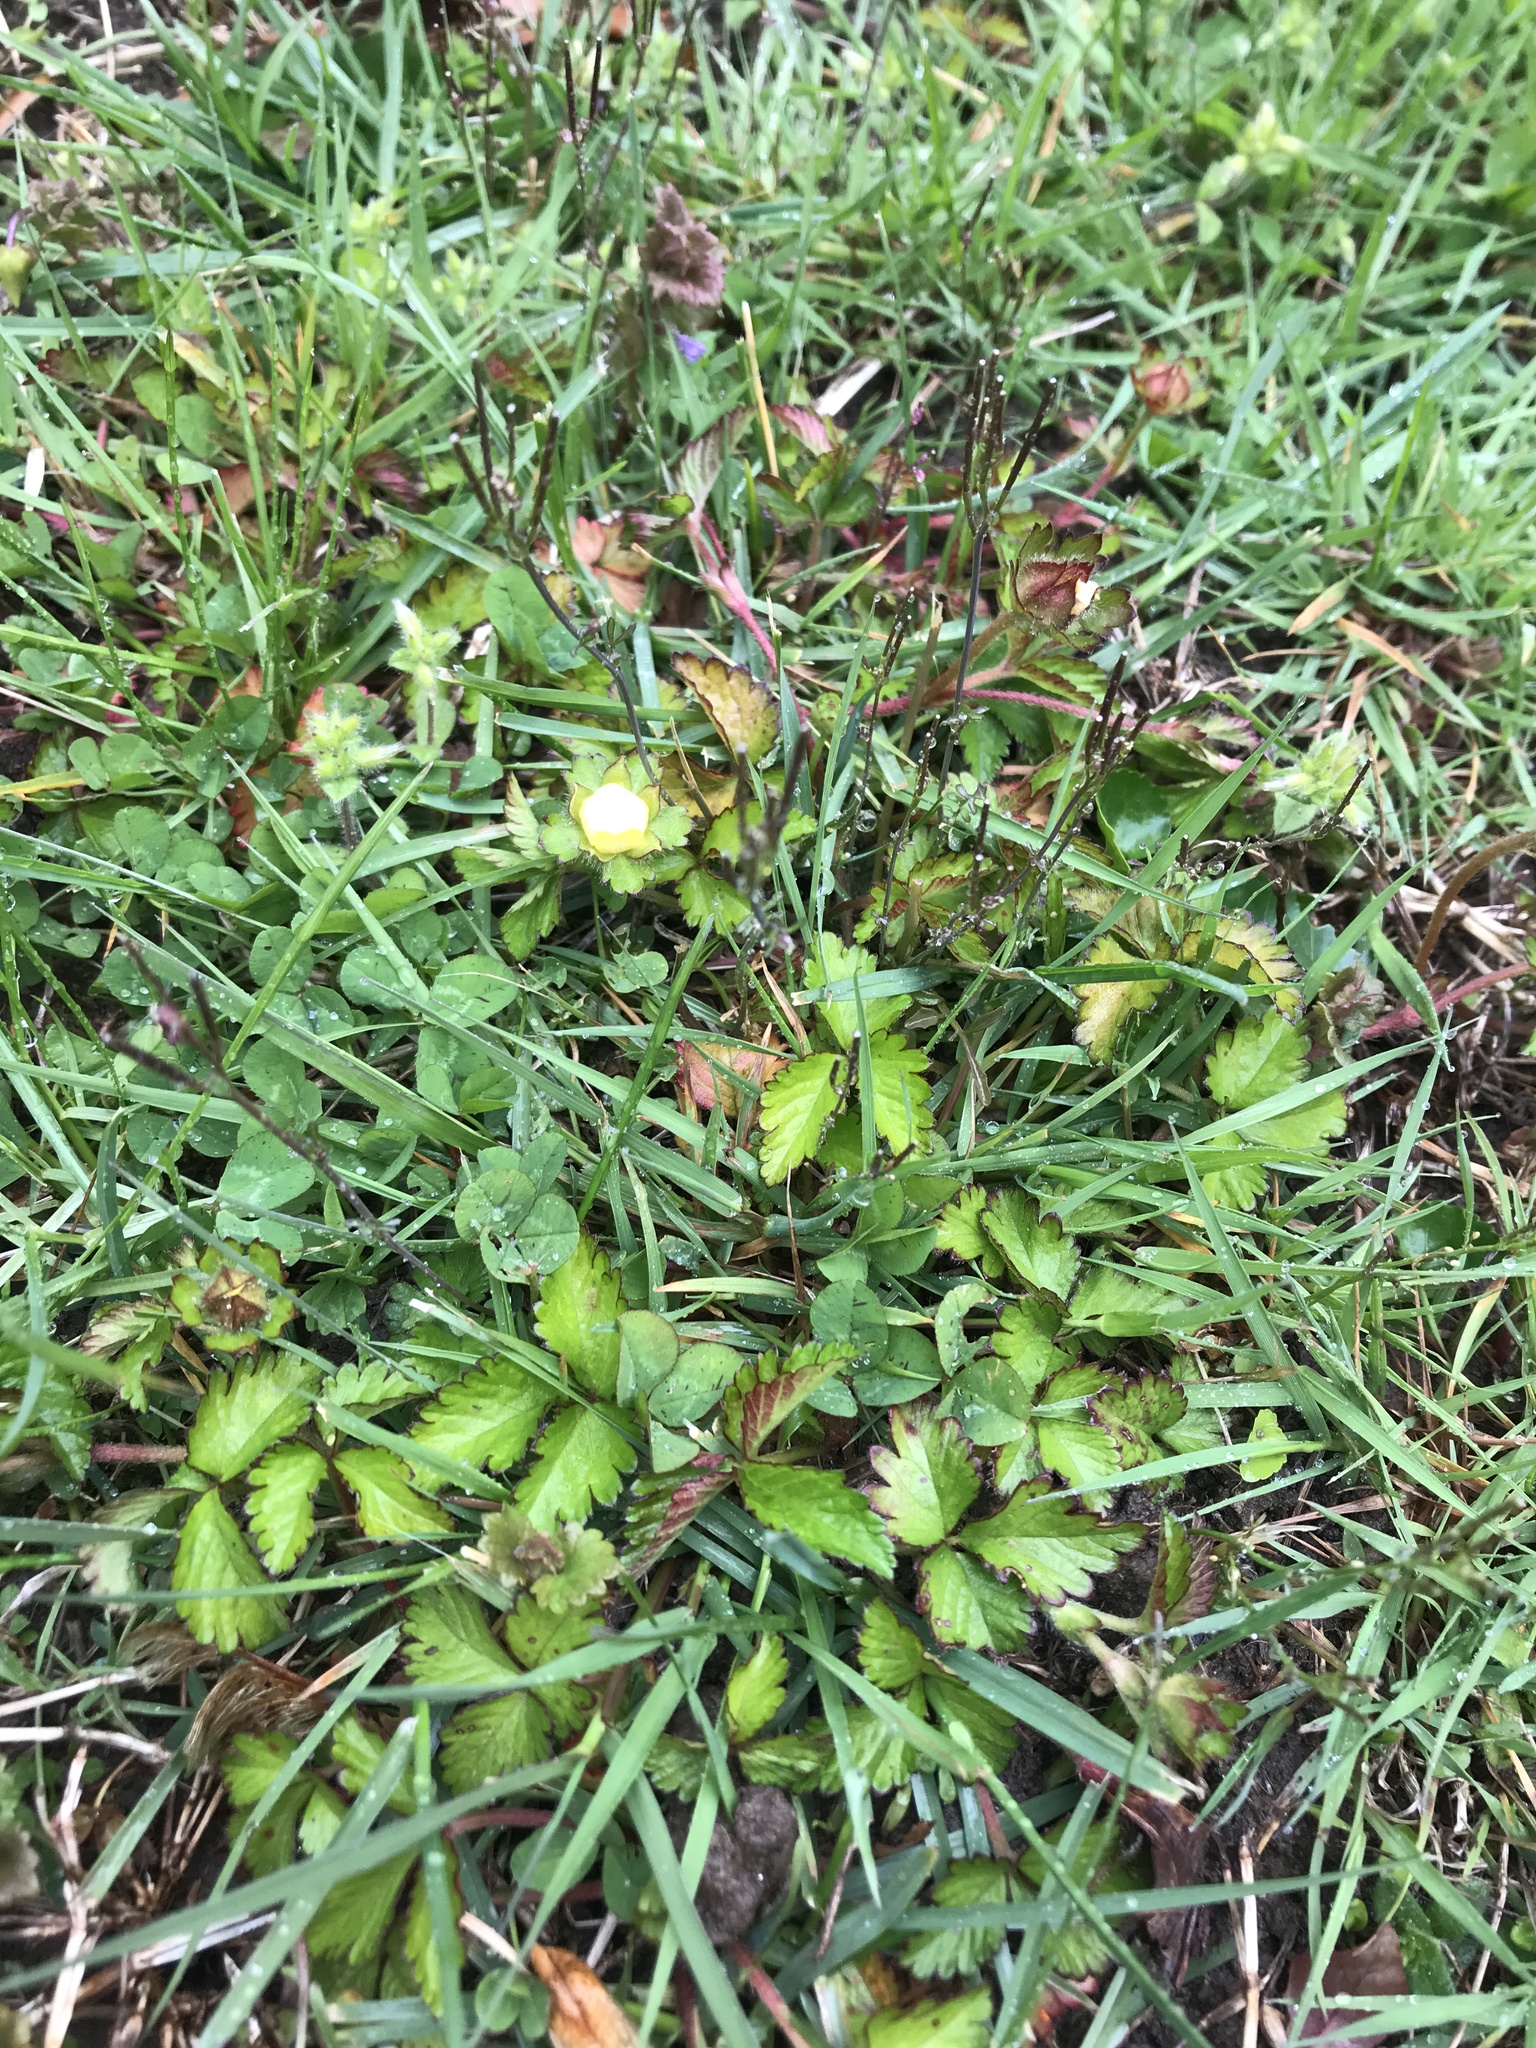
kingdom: Plantae
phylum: Tracheophyta
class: Magnoliopsida
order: Rosales
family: Rosaceae
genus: Potentilla
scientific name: Potentilla indica
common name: Yellow-flowered strawberry
